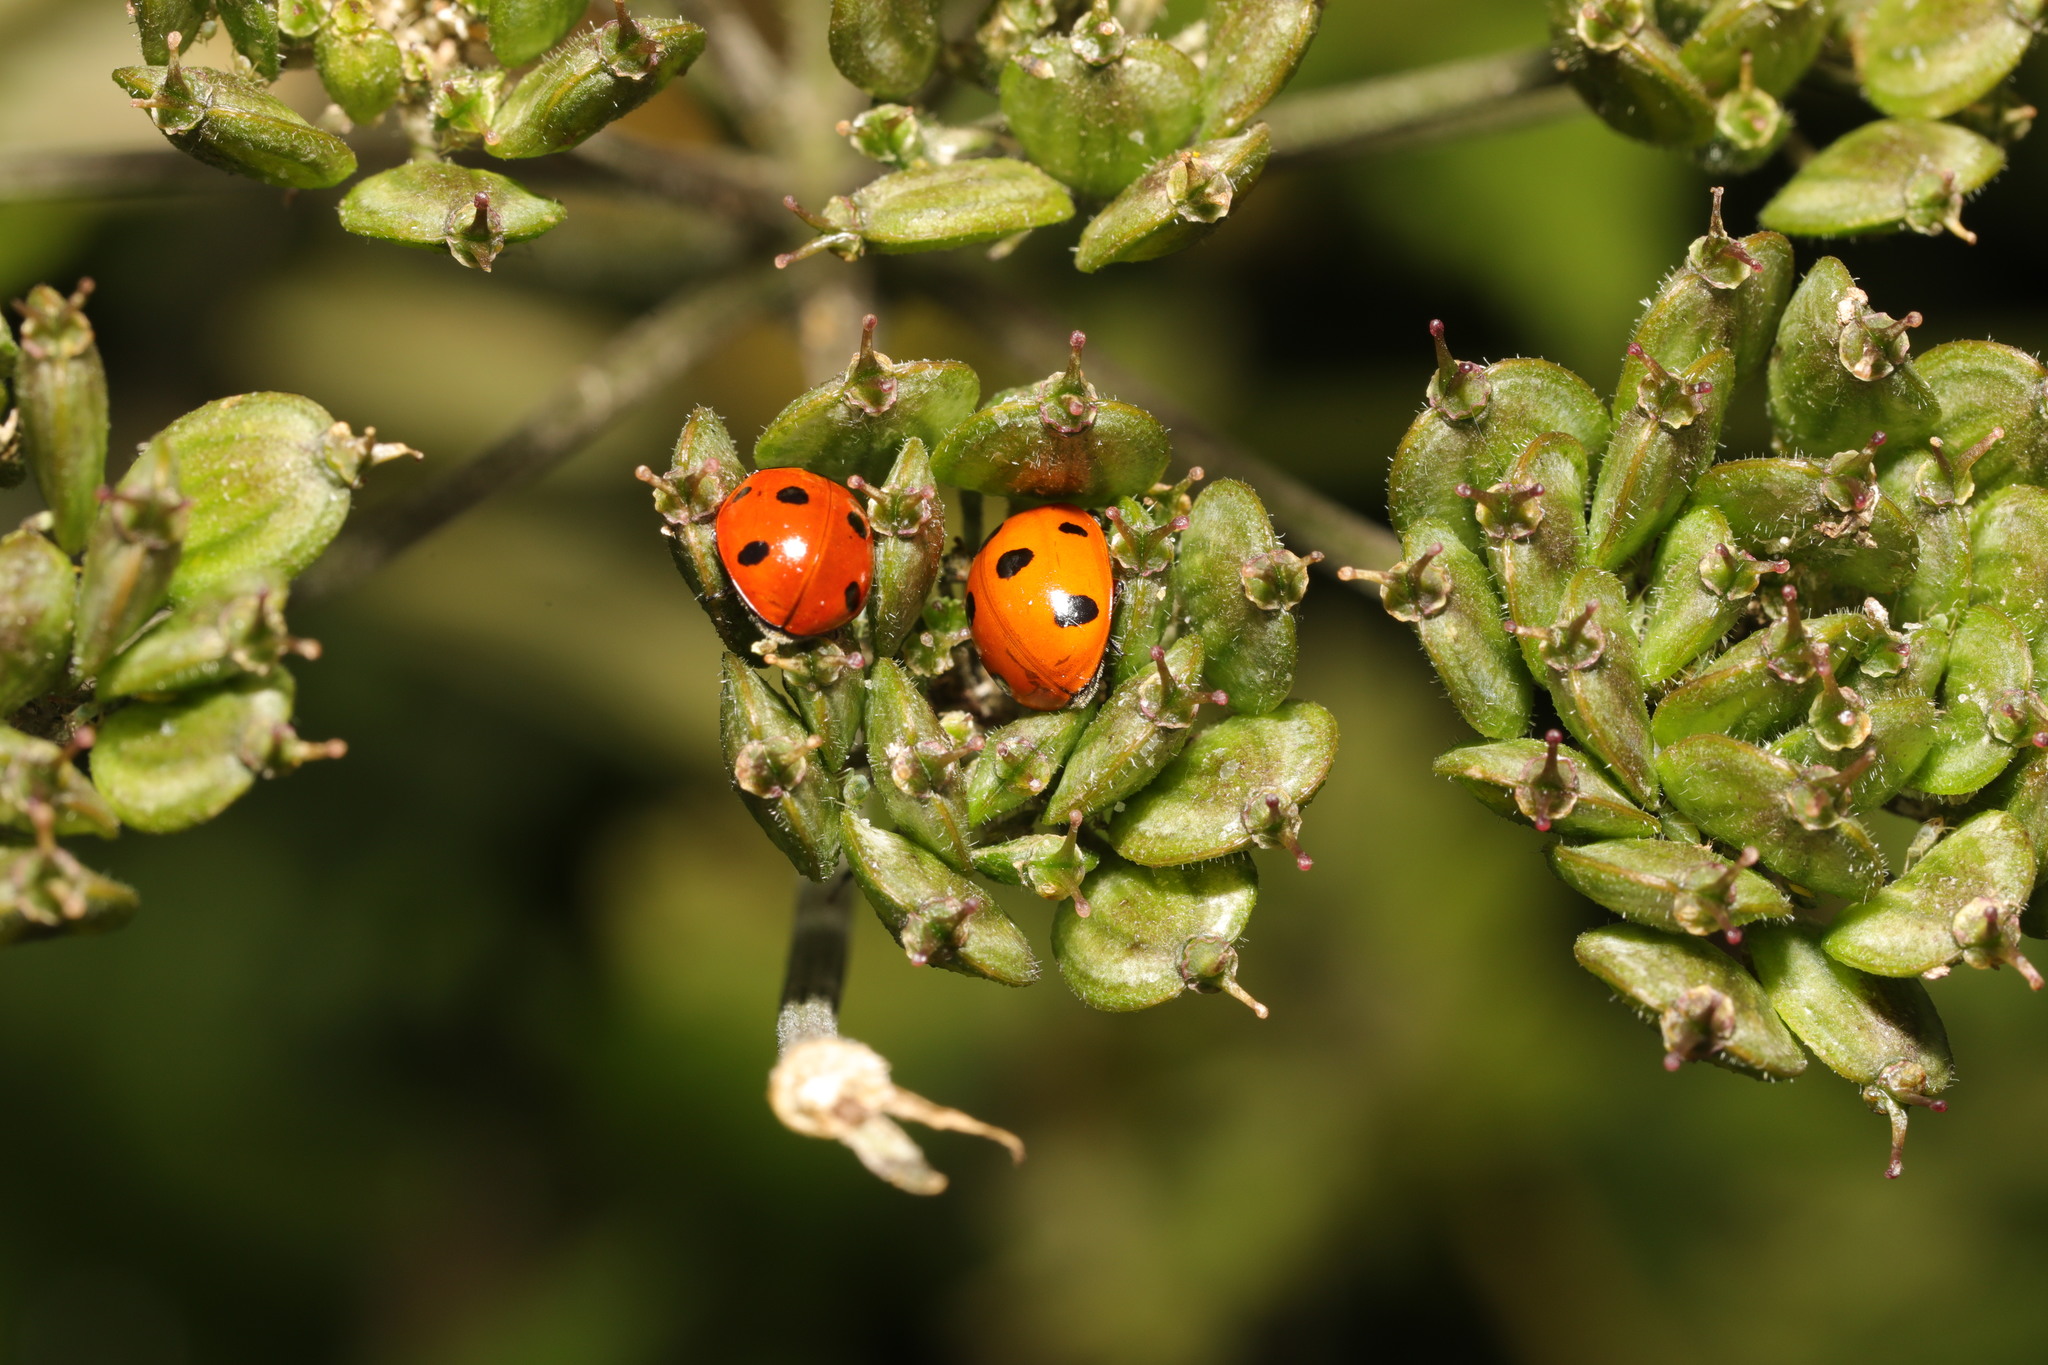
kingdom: Animalia
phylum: Arthropoda
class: Insecta
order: Coleoptera
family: Coccinellidae
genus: Coccinella
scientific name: Coccinella septempunctata
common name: Sevenspotted lady beetle
